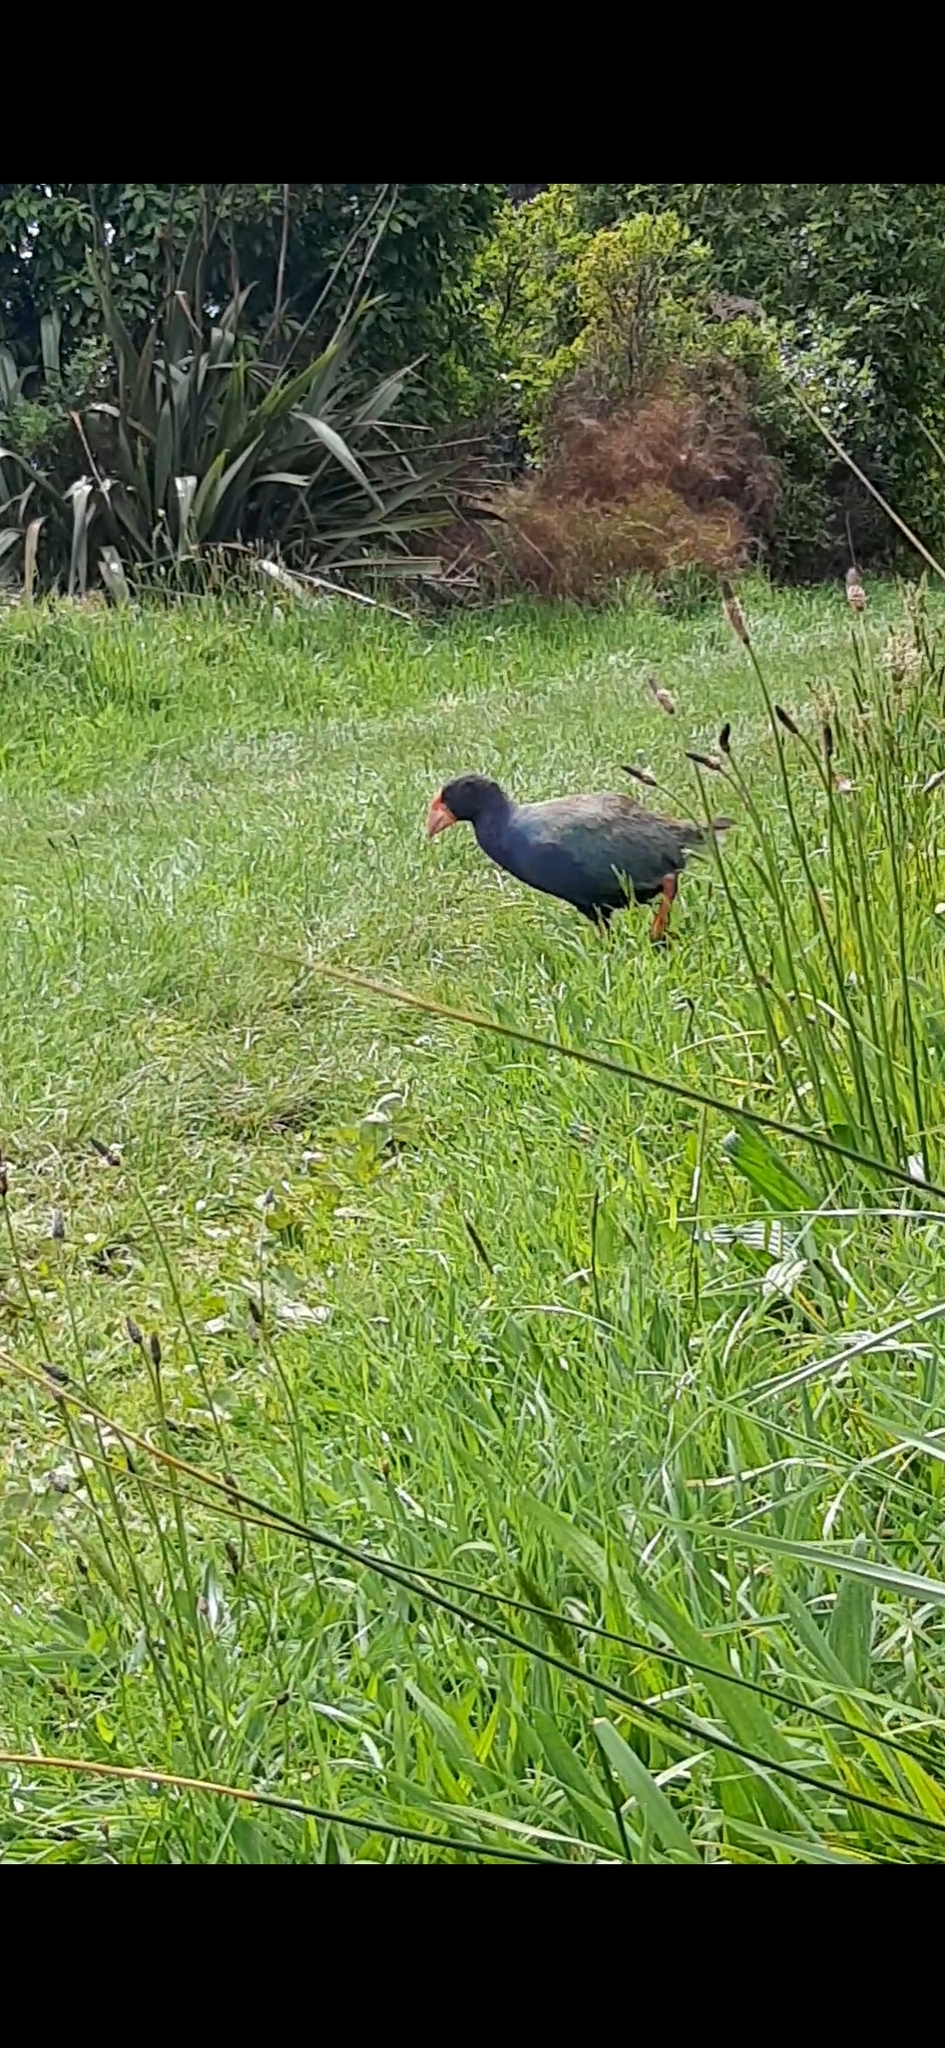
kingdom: Animalia
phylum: Chordata
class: Aves
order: Gruiformes
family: Rallidae
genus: Porphyrio
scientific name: Porphyrio hochstetteri
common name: South island takahe
